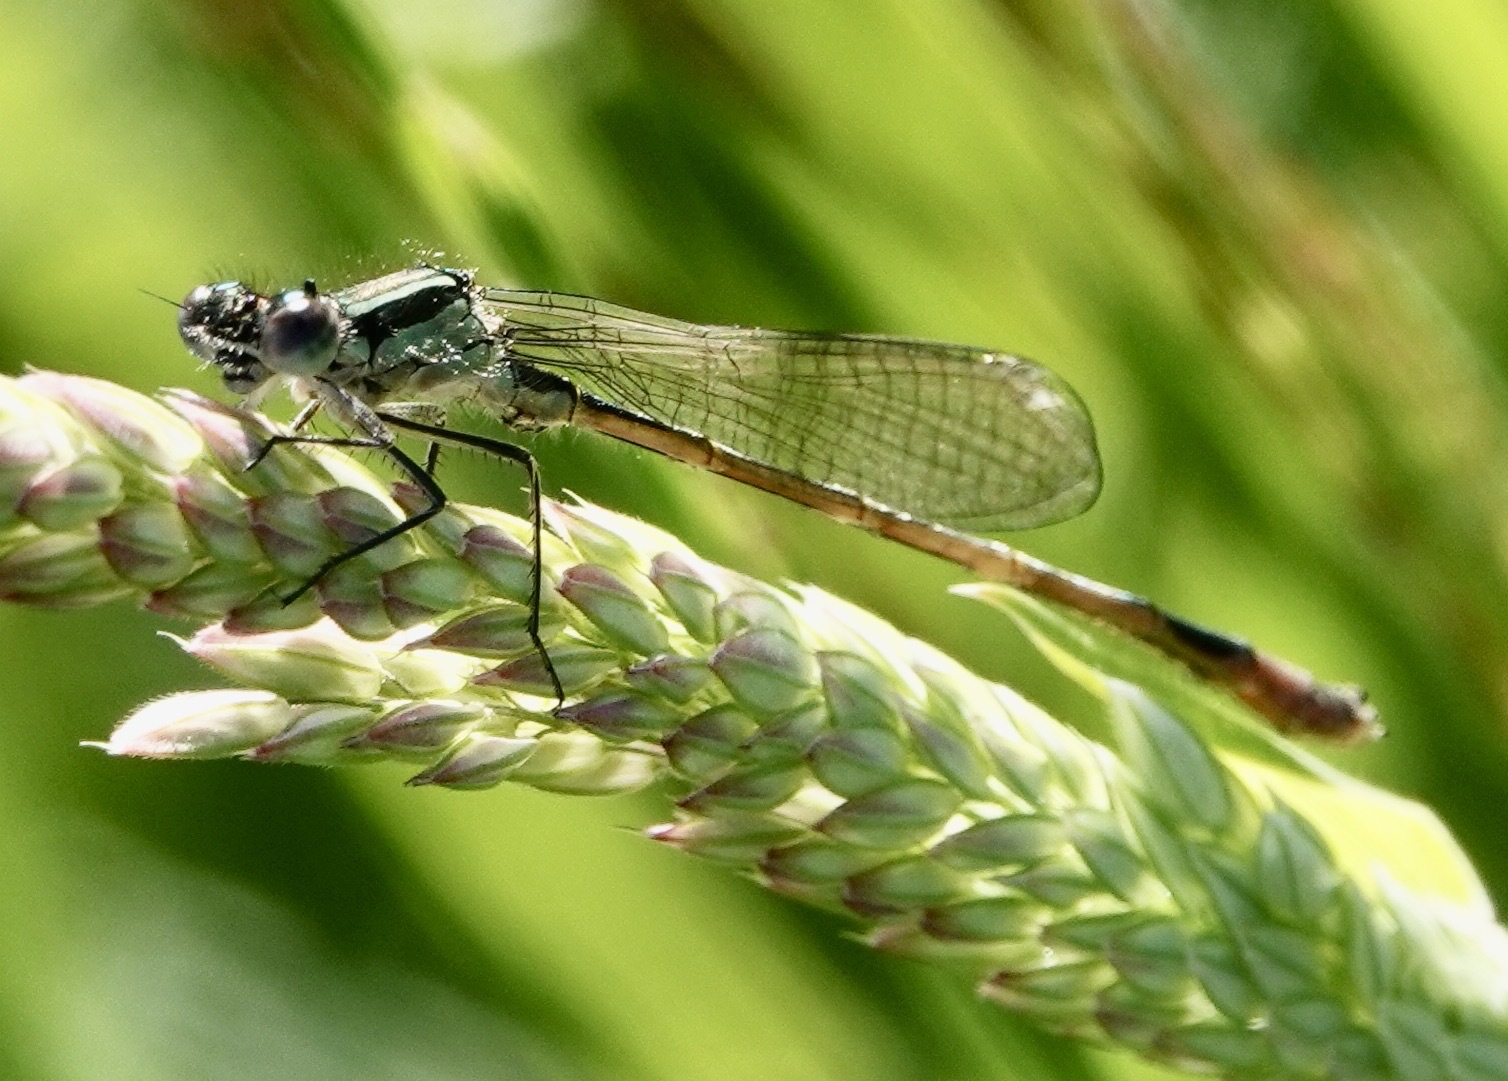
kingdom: Animalia
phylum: Arthropoda
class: Insecta
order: Odonata
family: Coenagrionidae
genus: Ischnura
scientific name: Ischnura elegans
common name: Blue-tailed damselfly
